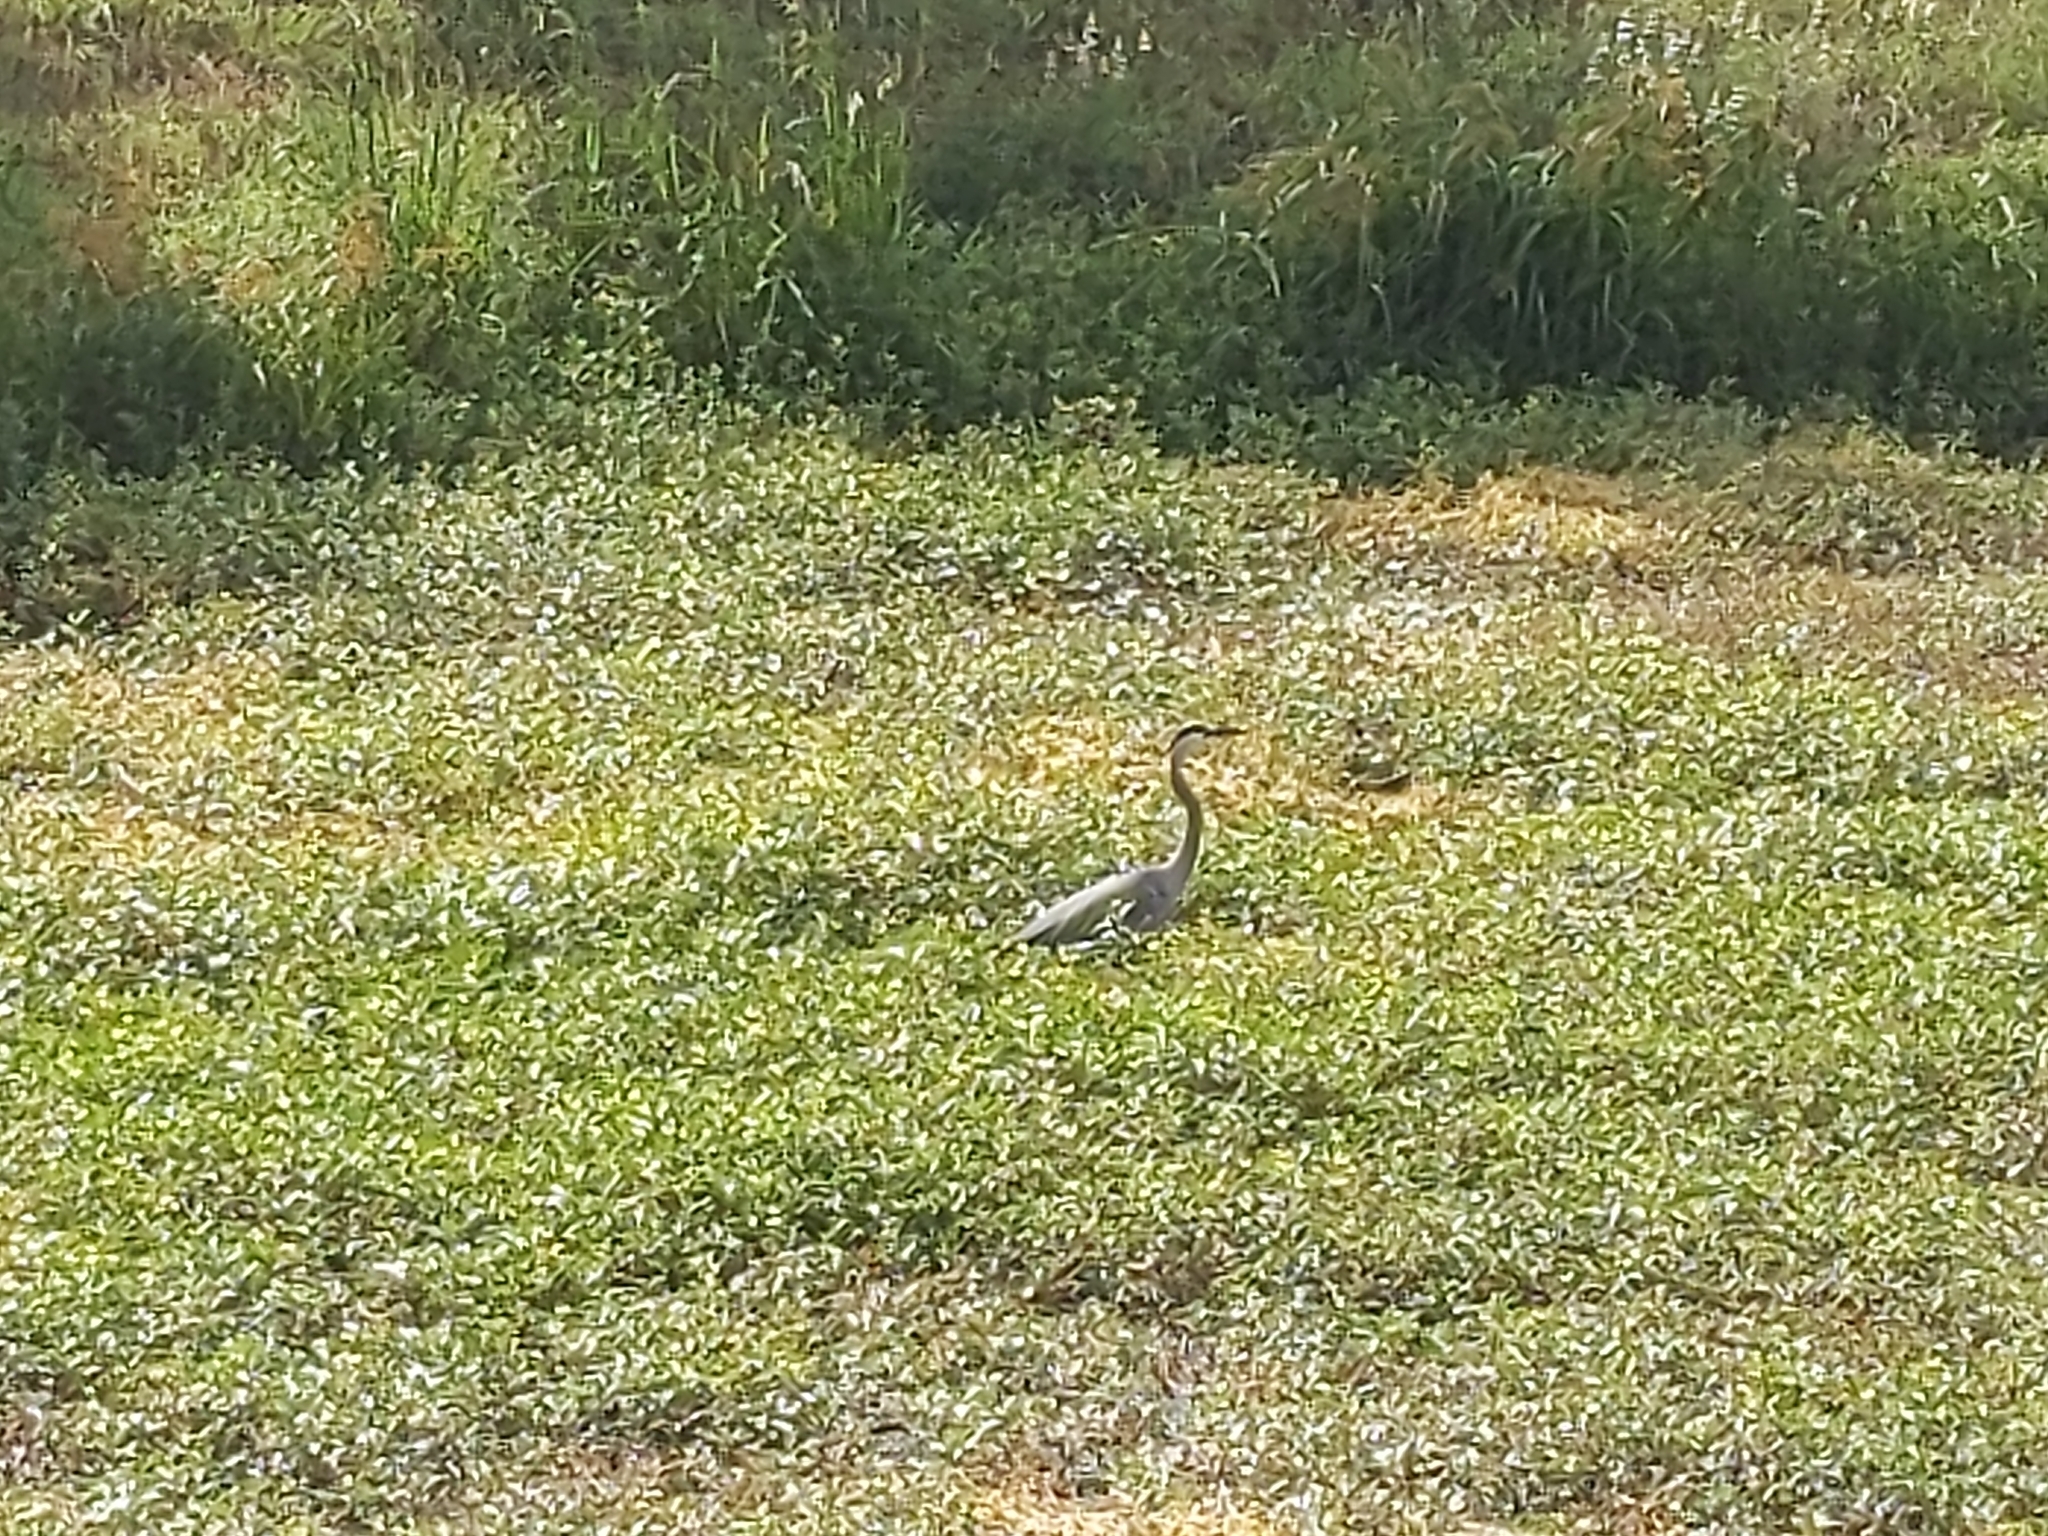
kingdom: Animalia
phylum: Chordata
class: Aves
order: Pelecaniformes
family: Ardeidae
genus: Ardea
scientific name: Ardea herodias
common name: Great blue heron
